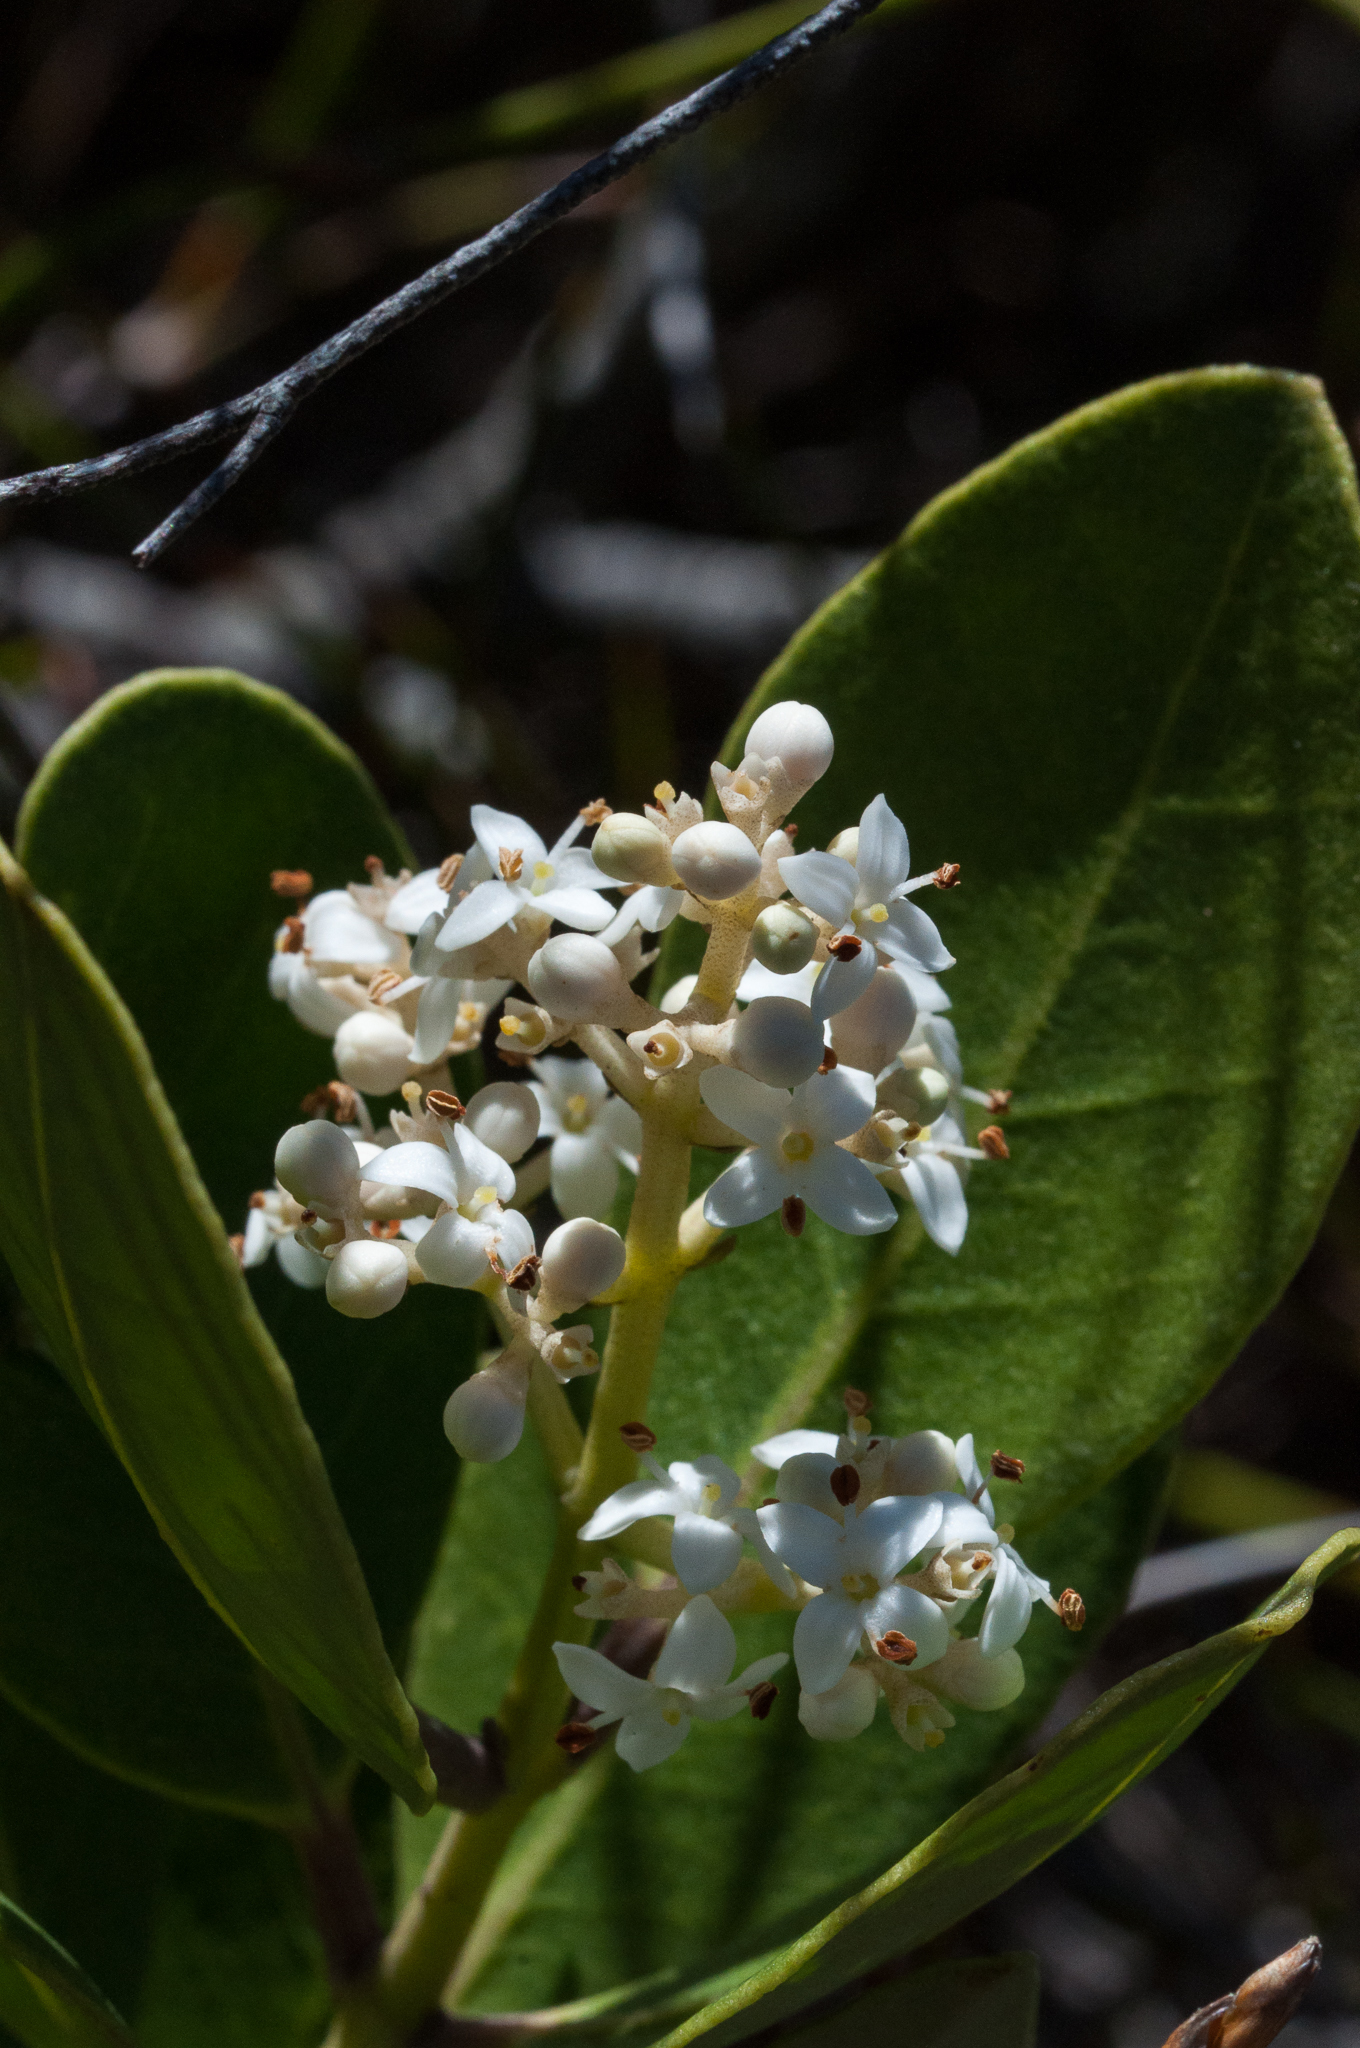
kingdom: Plantae
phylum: Tracheophyta
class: Magnoliopsida
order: Lamiales
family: Oleaceae
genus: Olea
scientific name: Olea capensis
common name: Black ironwood
